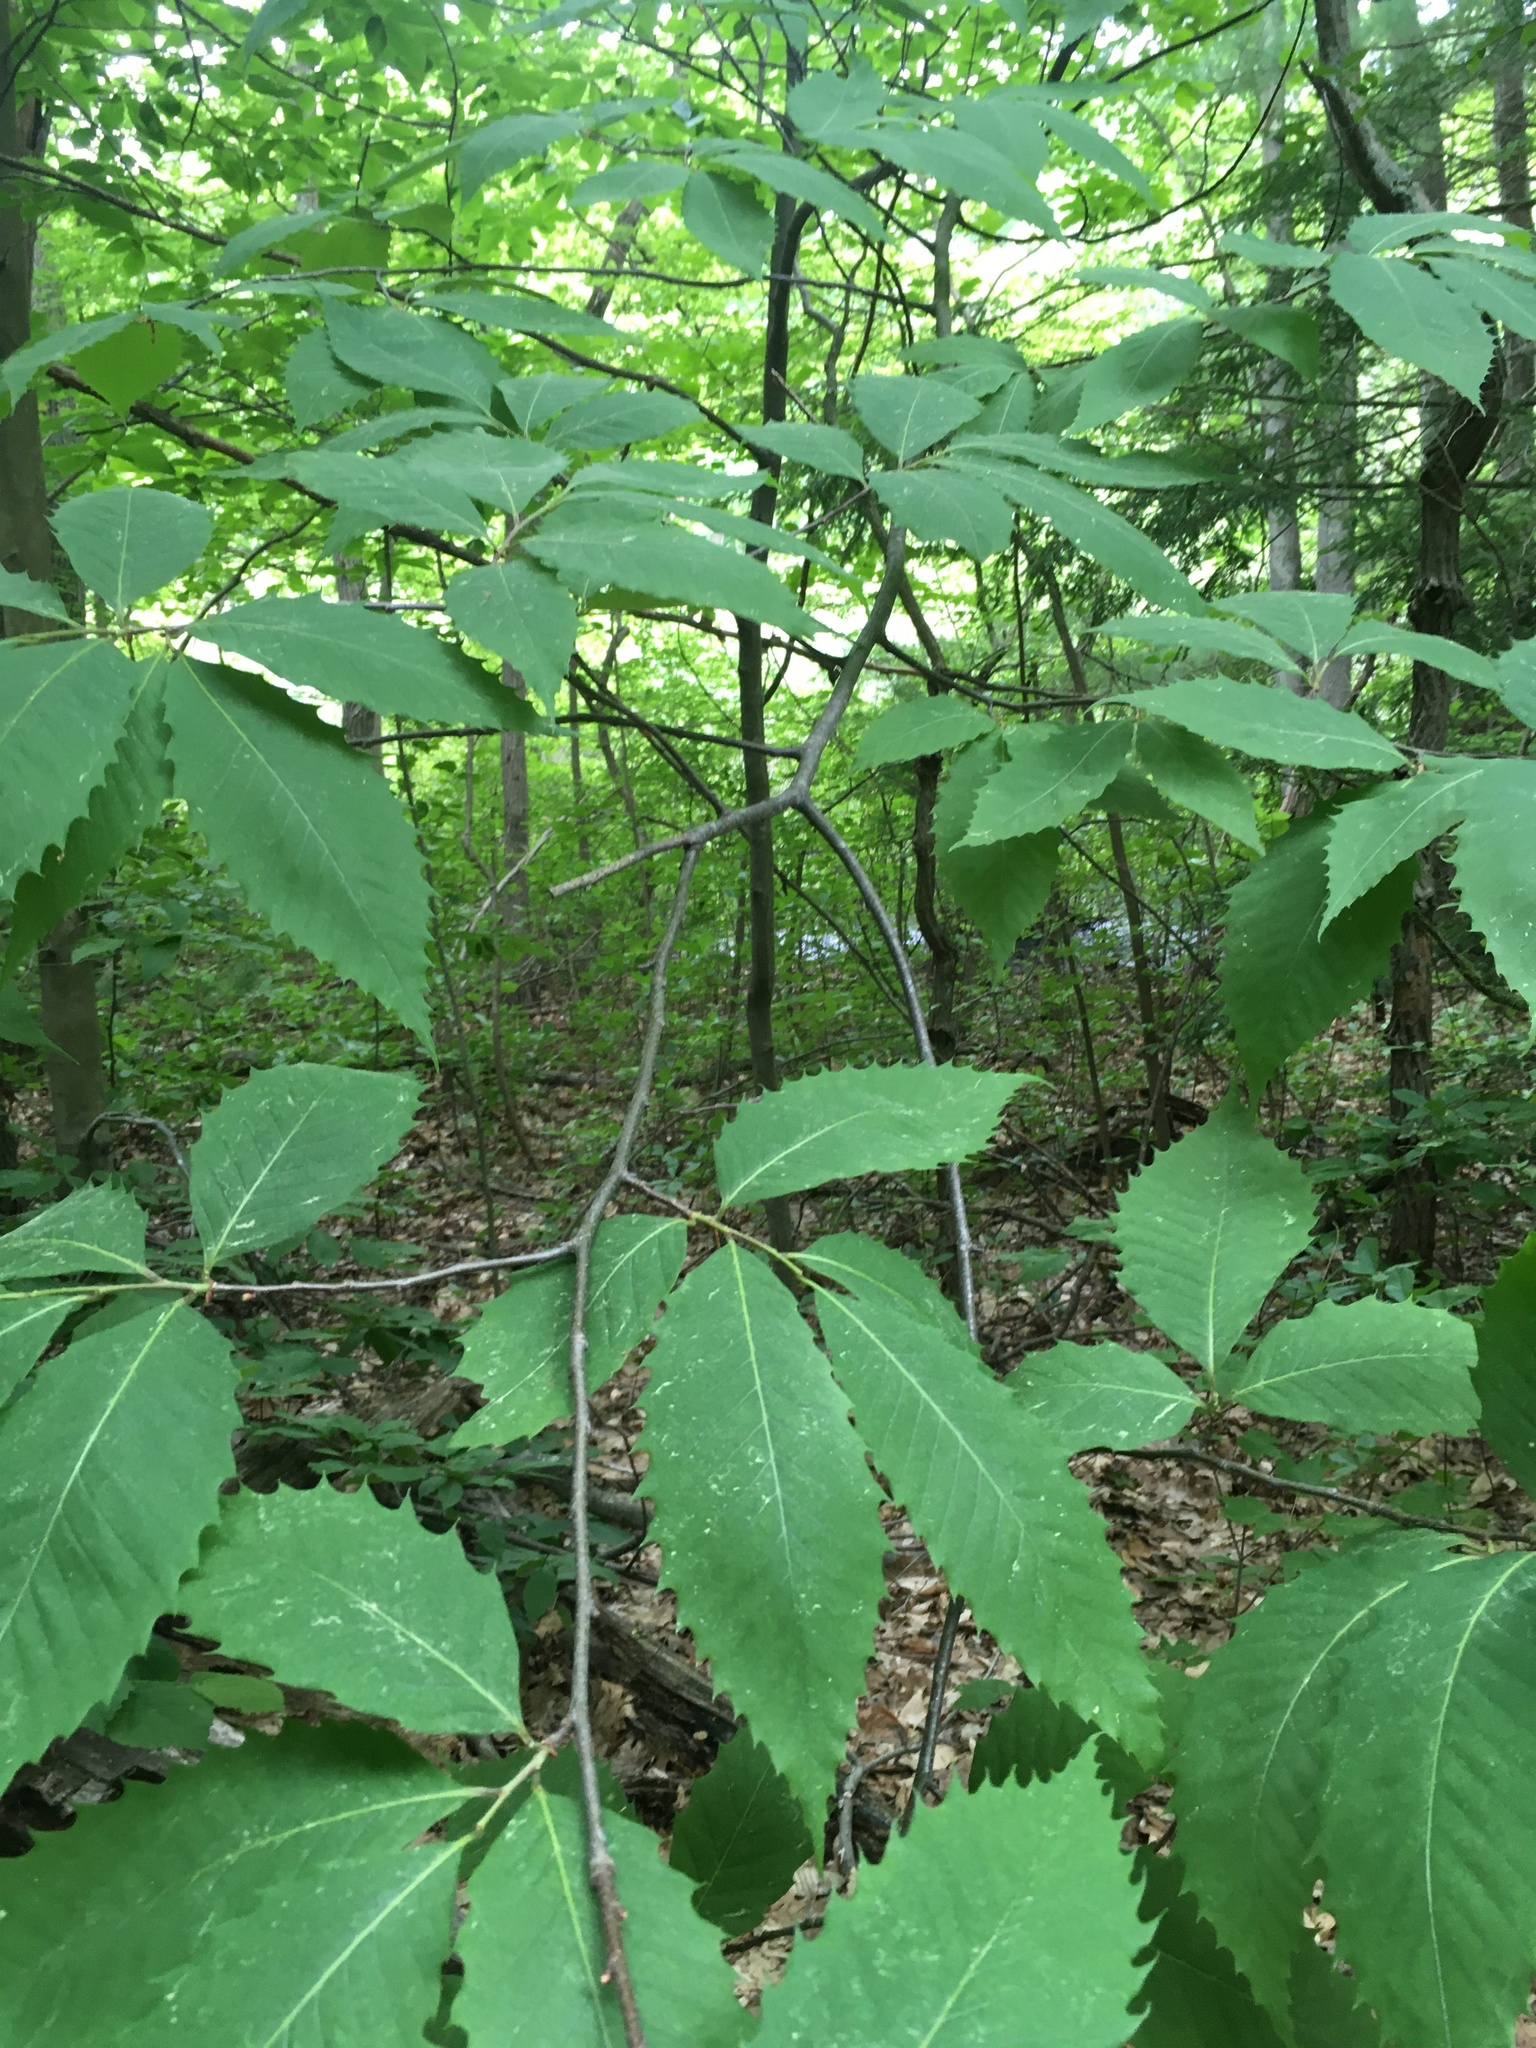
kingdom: Plantae
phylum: Tracheophyta
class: Magnoliopsida
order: Fagales
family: Fagaceae
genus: Castanea
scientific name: Castanea dentata
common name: American chestnut
